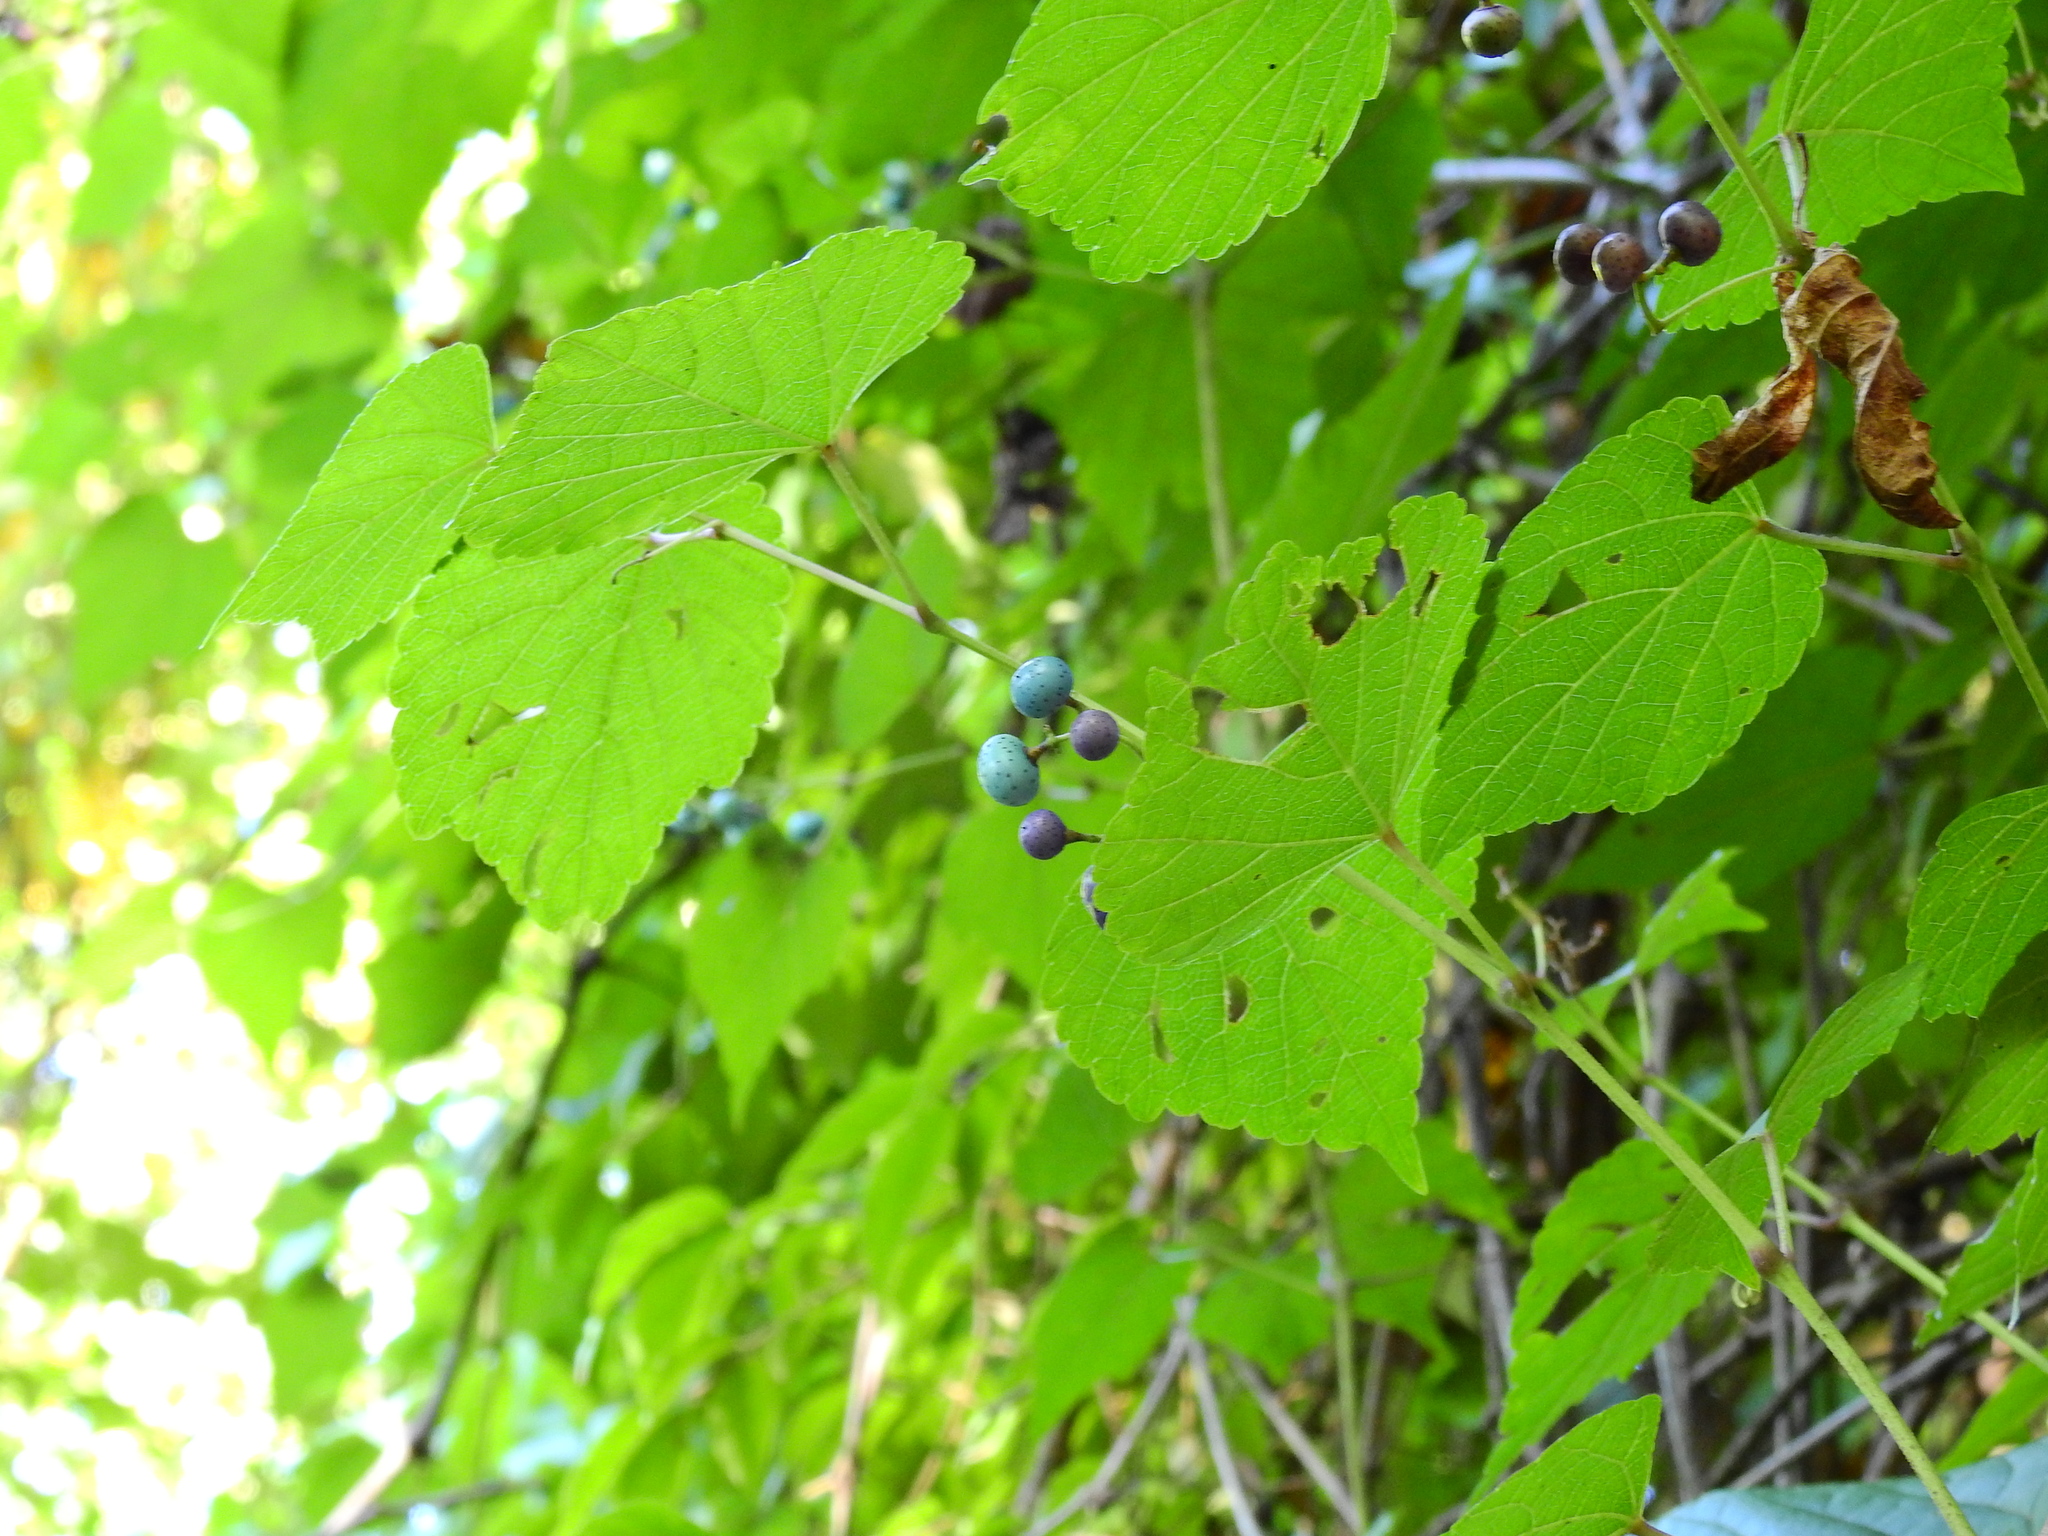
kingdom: Plantae
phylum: Tracheophyta
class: Magnoliopsida
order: Vitales
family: Vitaceae
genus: Ampelopsis
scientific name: Ampelopsis glandulosa
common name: Amur peppervine
